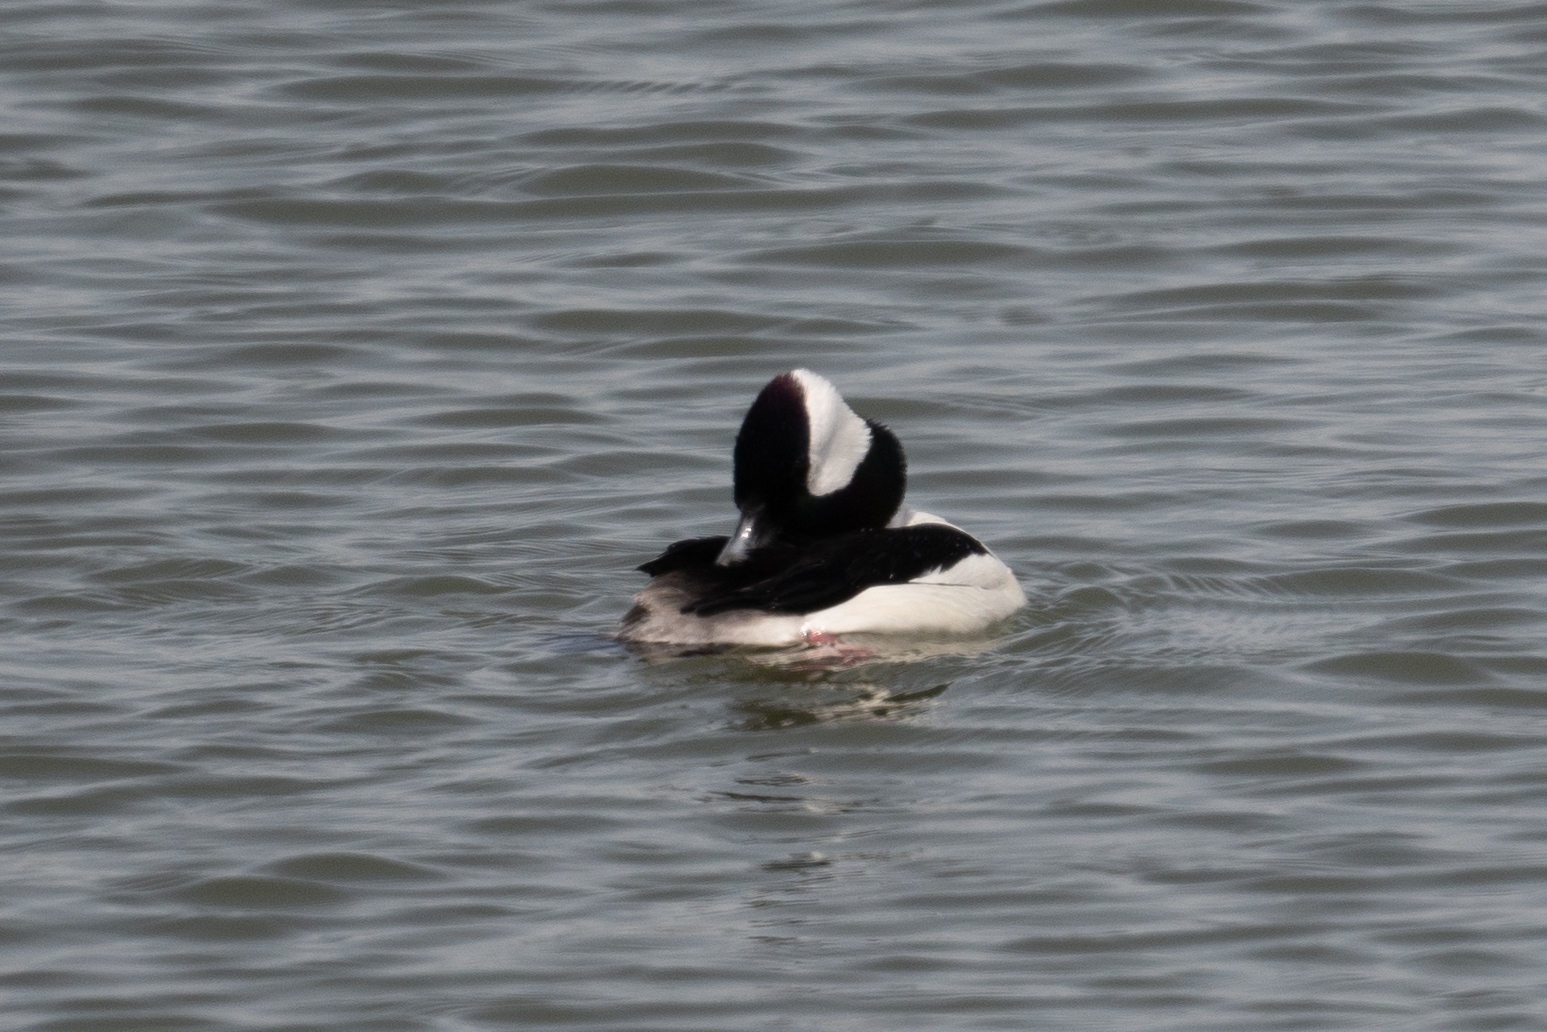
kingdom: Animalia
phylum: Chordata
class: Aves
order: Anseriformes
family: Anatidae
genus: Bucephala
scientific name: Bucephala albeola
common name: Bufflehead
